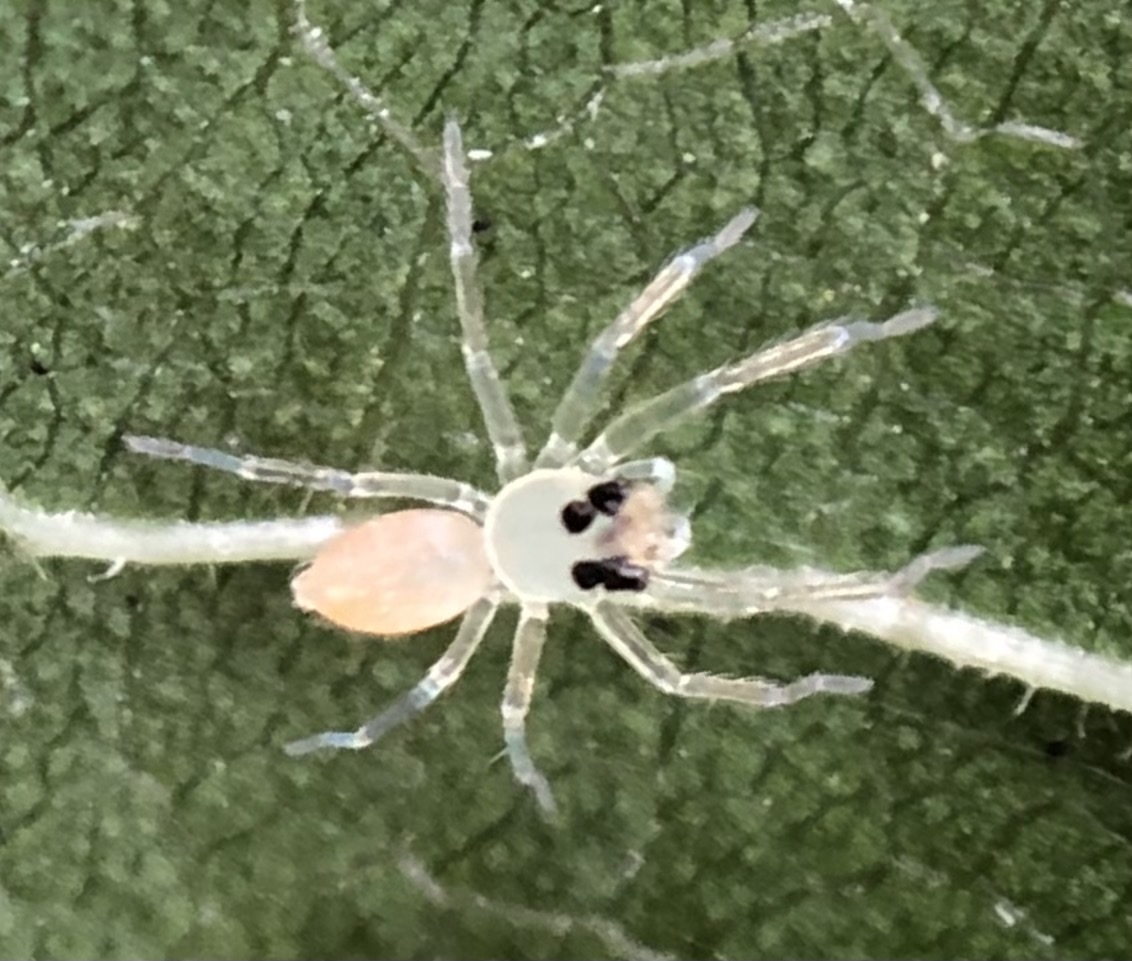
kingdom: Animalia
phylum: Arthropoda
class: Arachnida
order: Araneae
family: Salticidae
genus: Lyssomanes
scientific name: Lyssomanes viridis
